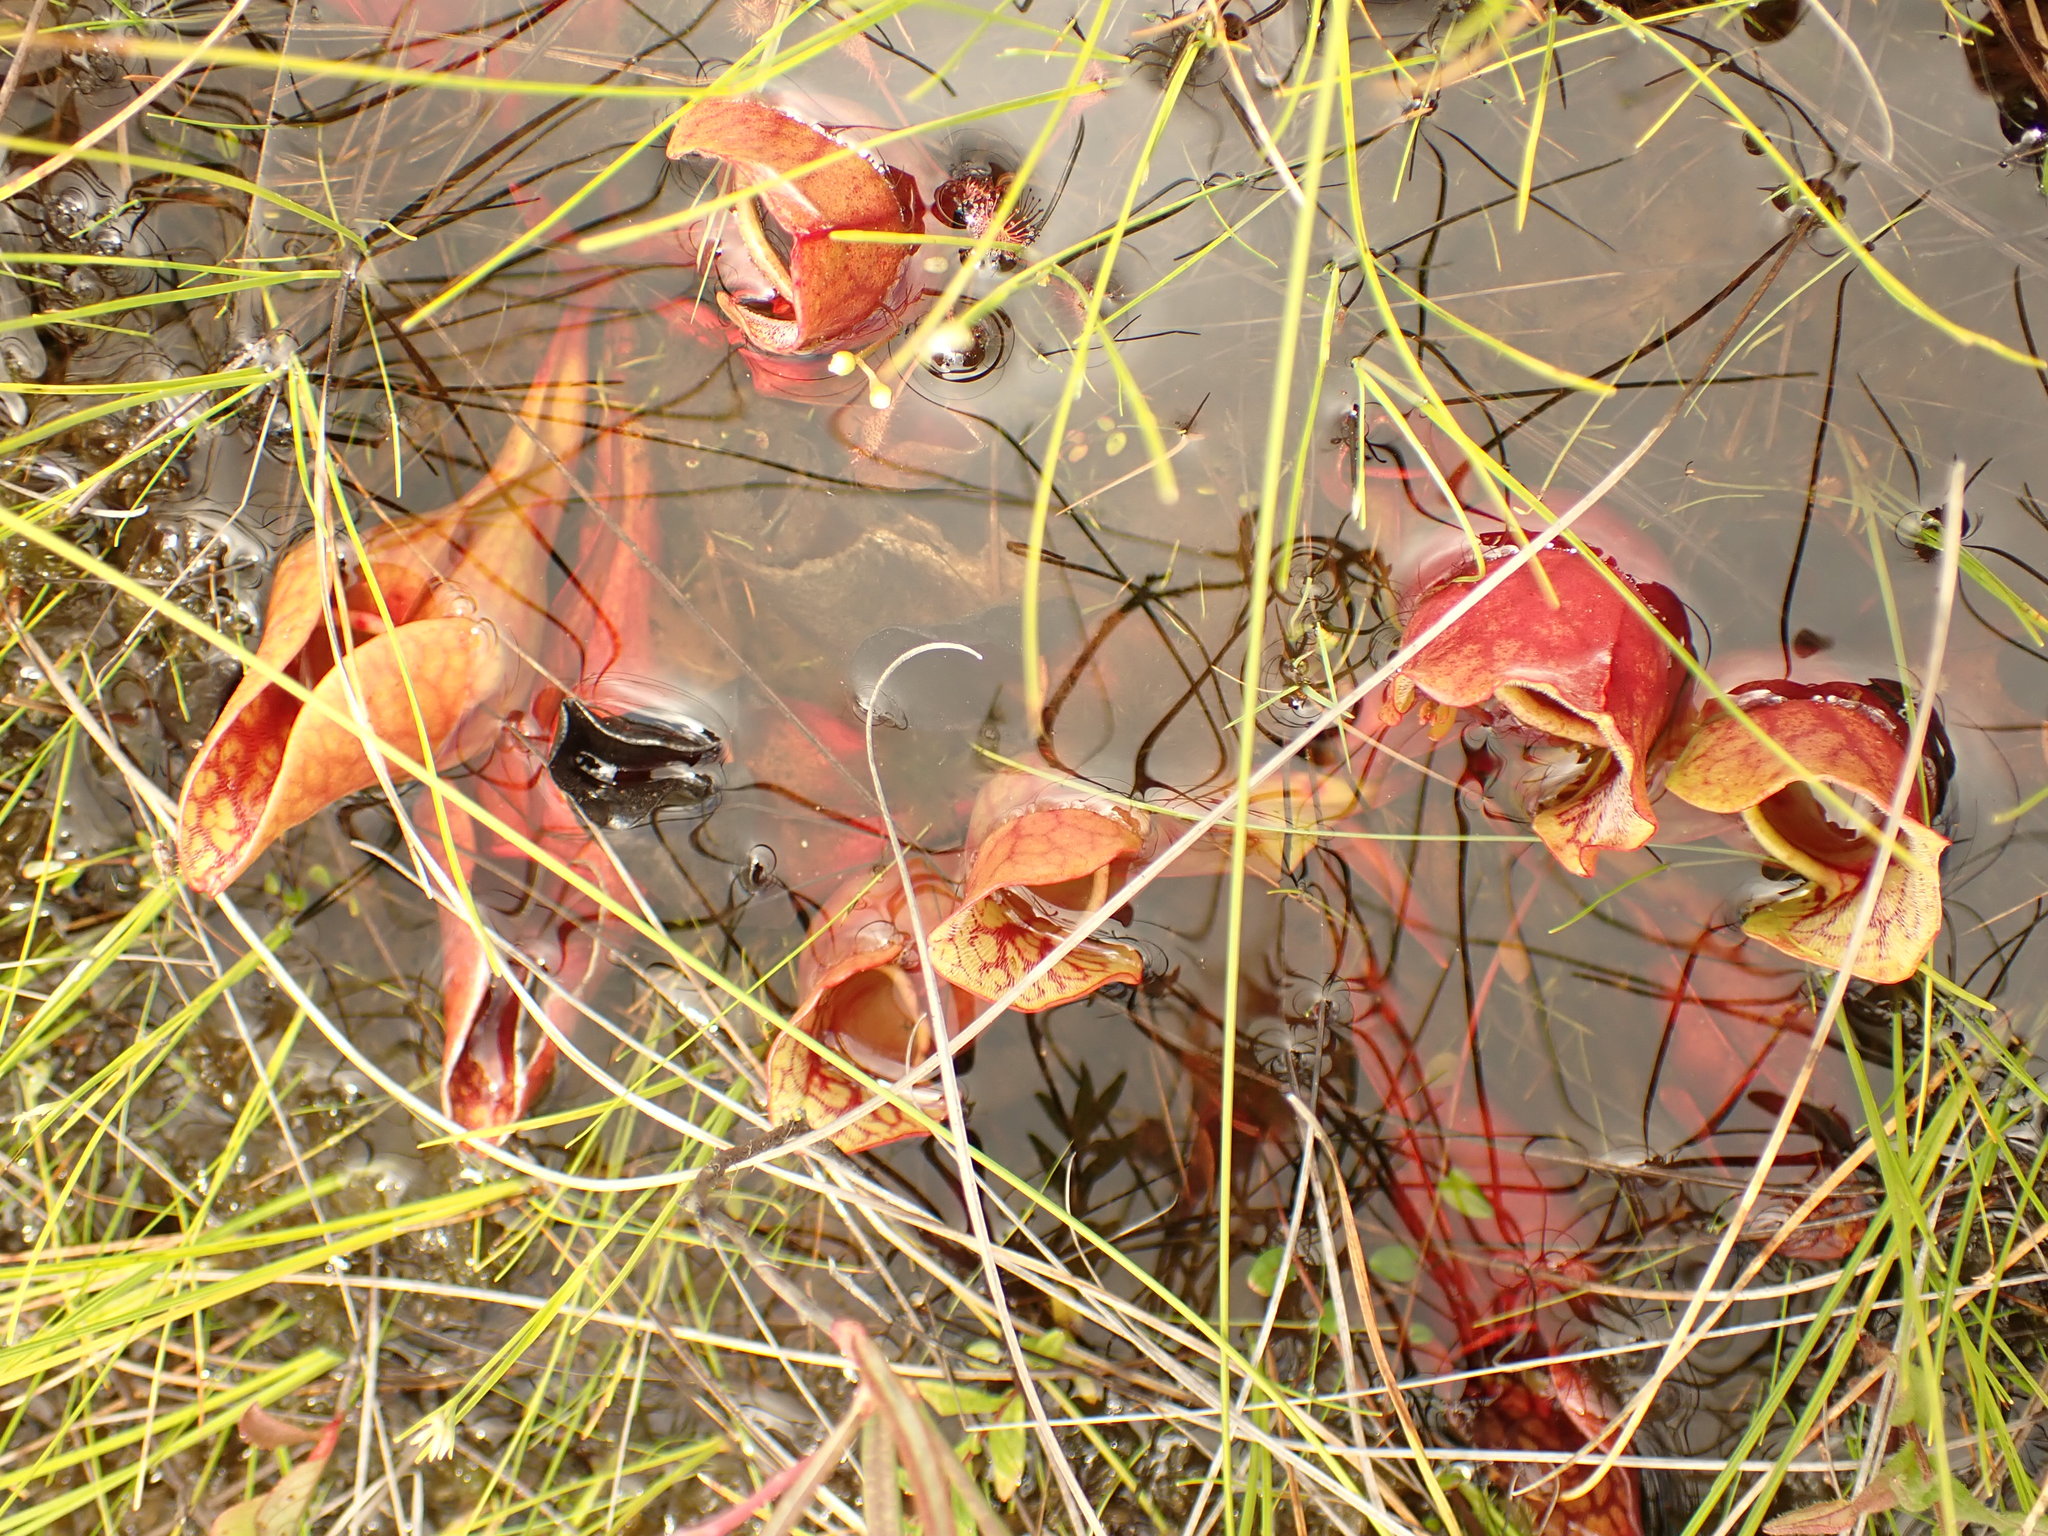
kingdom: Plantae
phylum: Tracheophyta
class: Magnoliopsida
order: Ericales
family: Sarraceniaceae
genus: Sarracenia
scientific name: Sarracenia purpurea
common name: Pitcherplant
